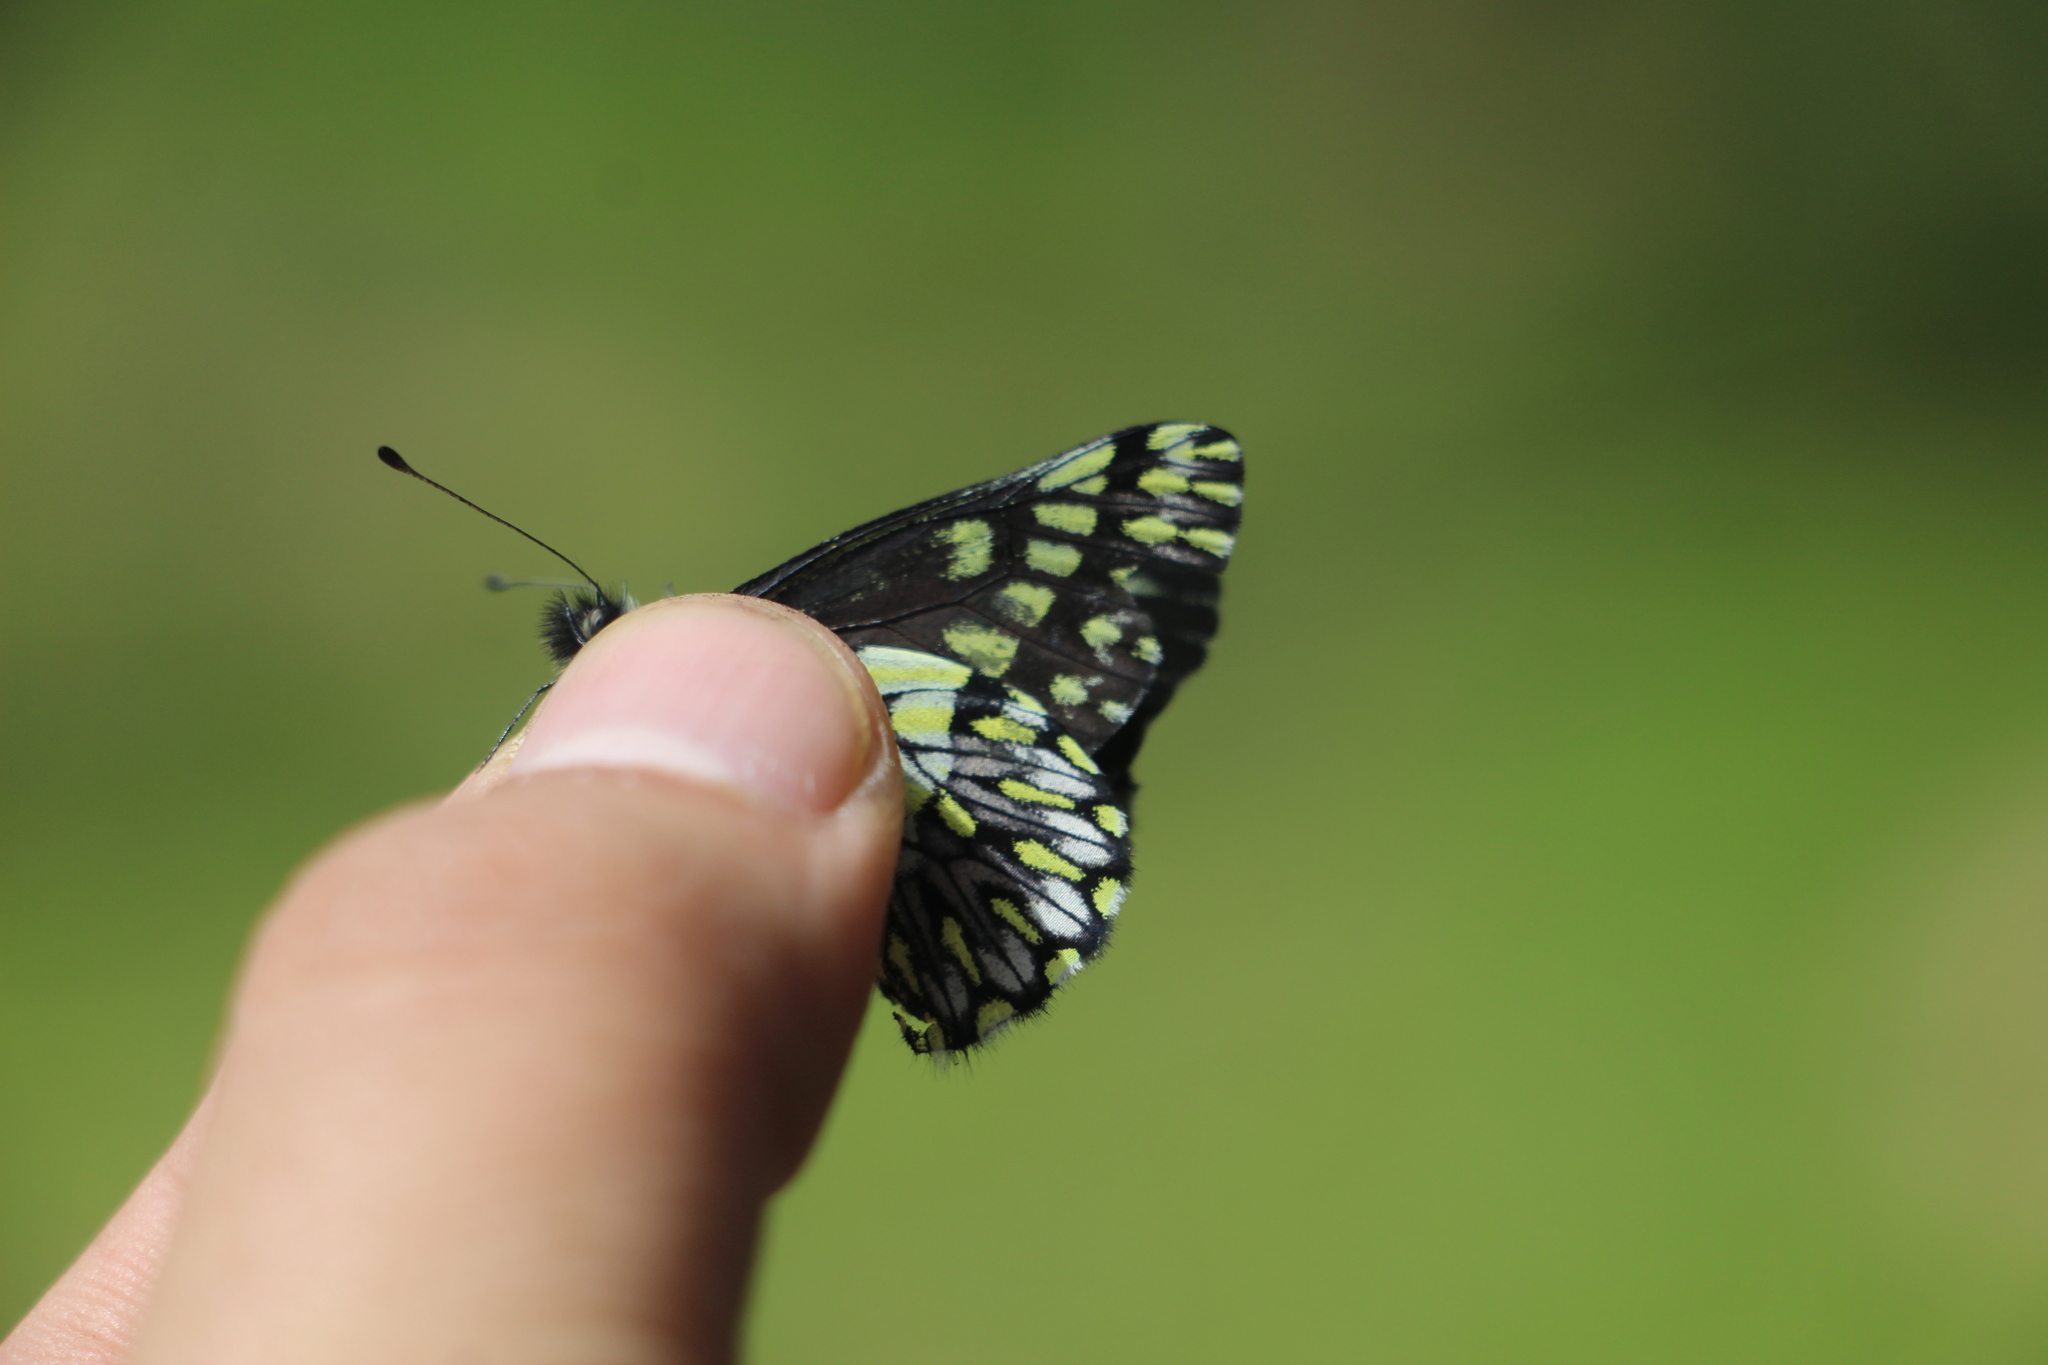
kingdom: Animalia
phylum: Arthropoda
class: Insecta
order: Lepidoptera
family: Pieridae
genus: Catasticta
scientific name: Catasticta semiramis
